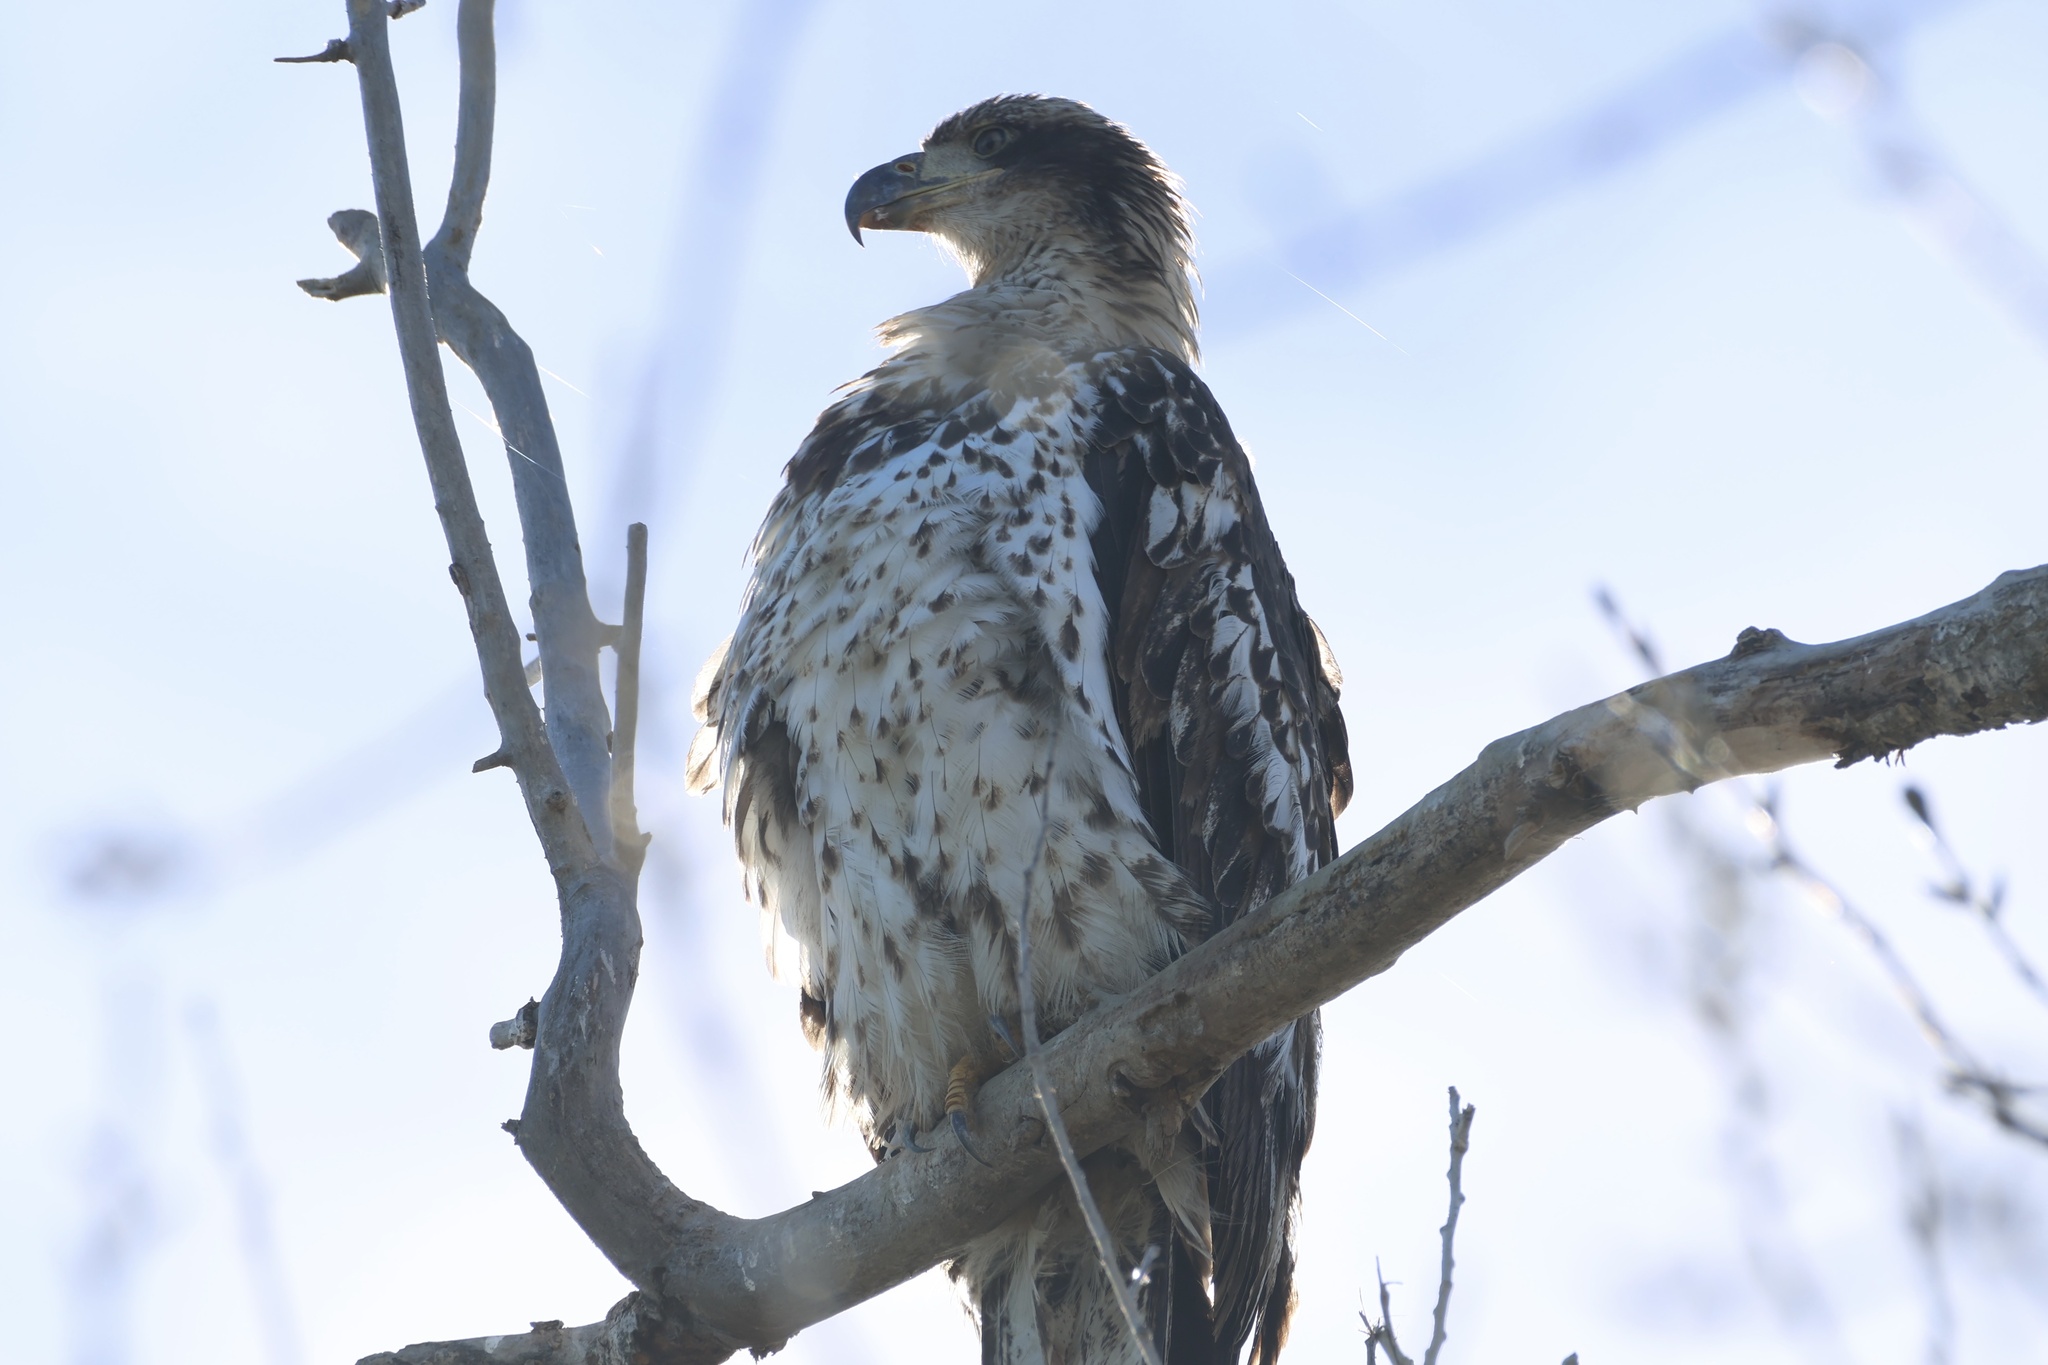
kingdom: Animalia
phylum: Chordata
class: Aves
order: Accipitriformes
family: Accipitridae
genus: Haliaeetus
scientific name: Haliaeetus leucocephalus
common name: Bald eagle
